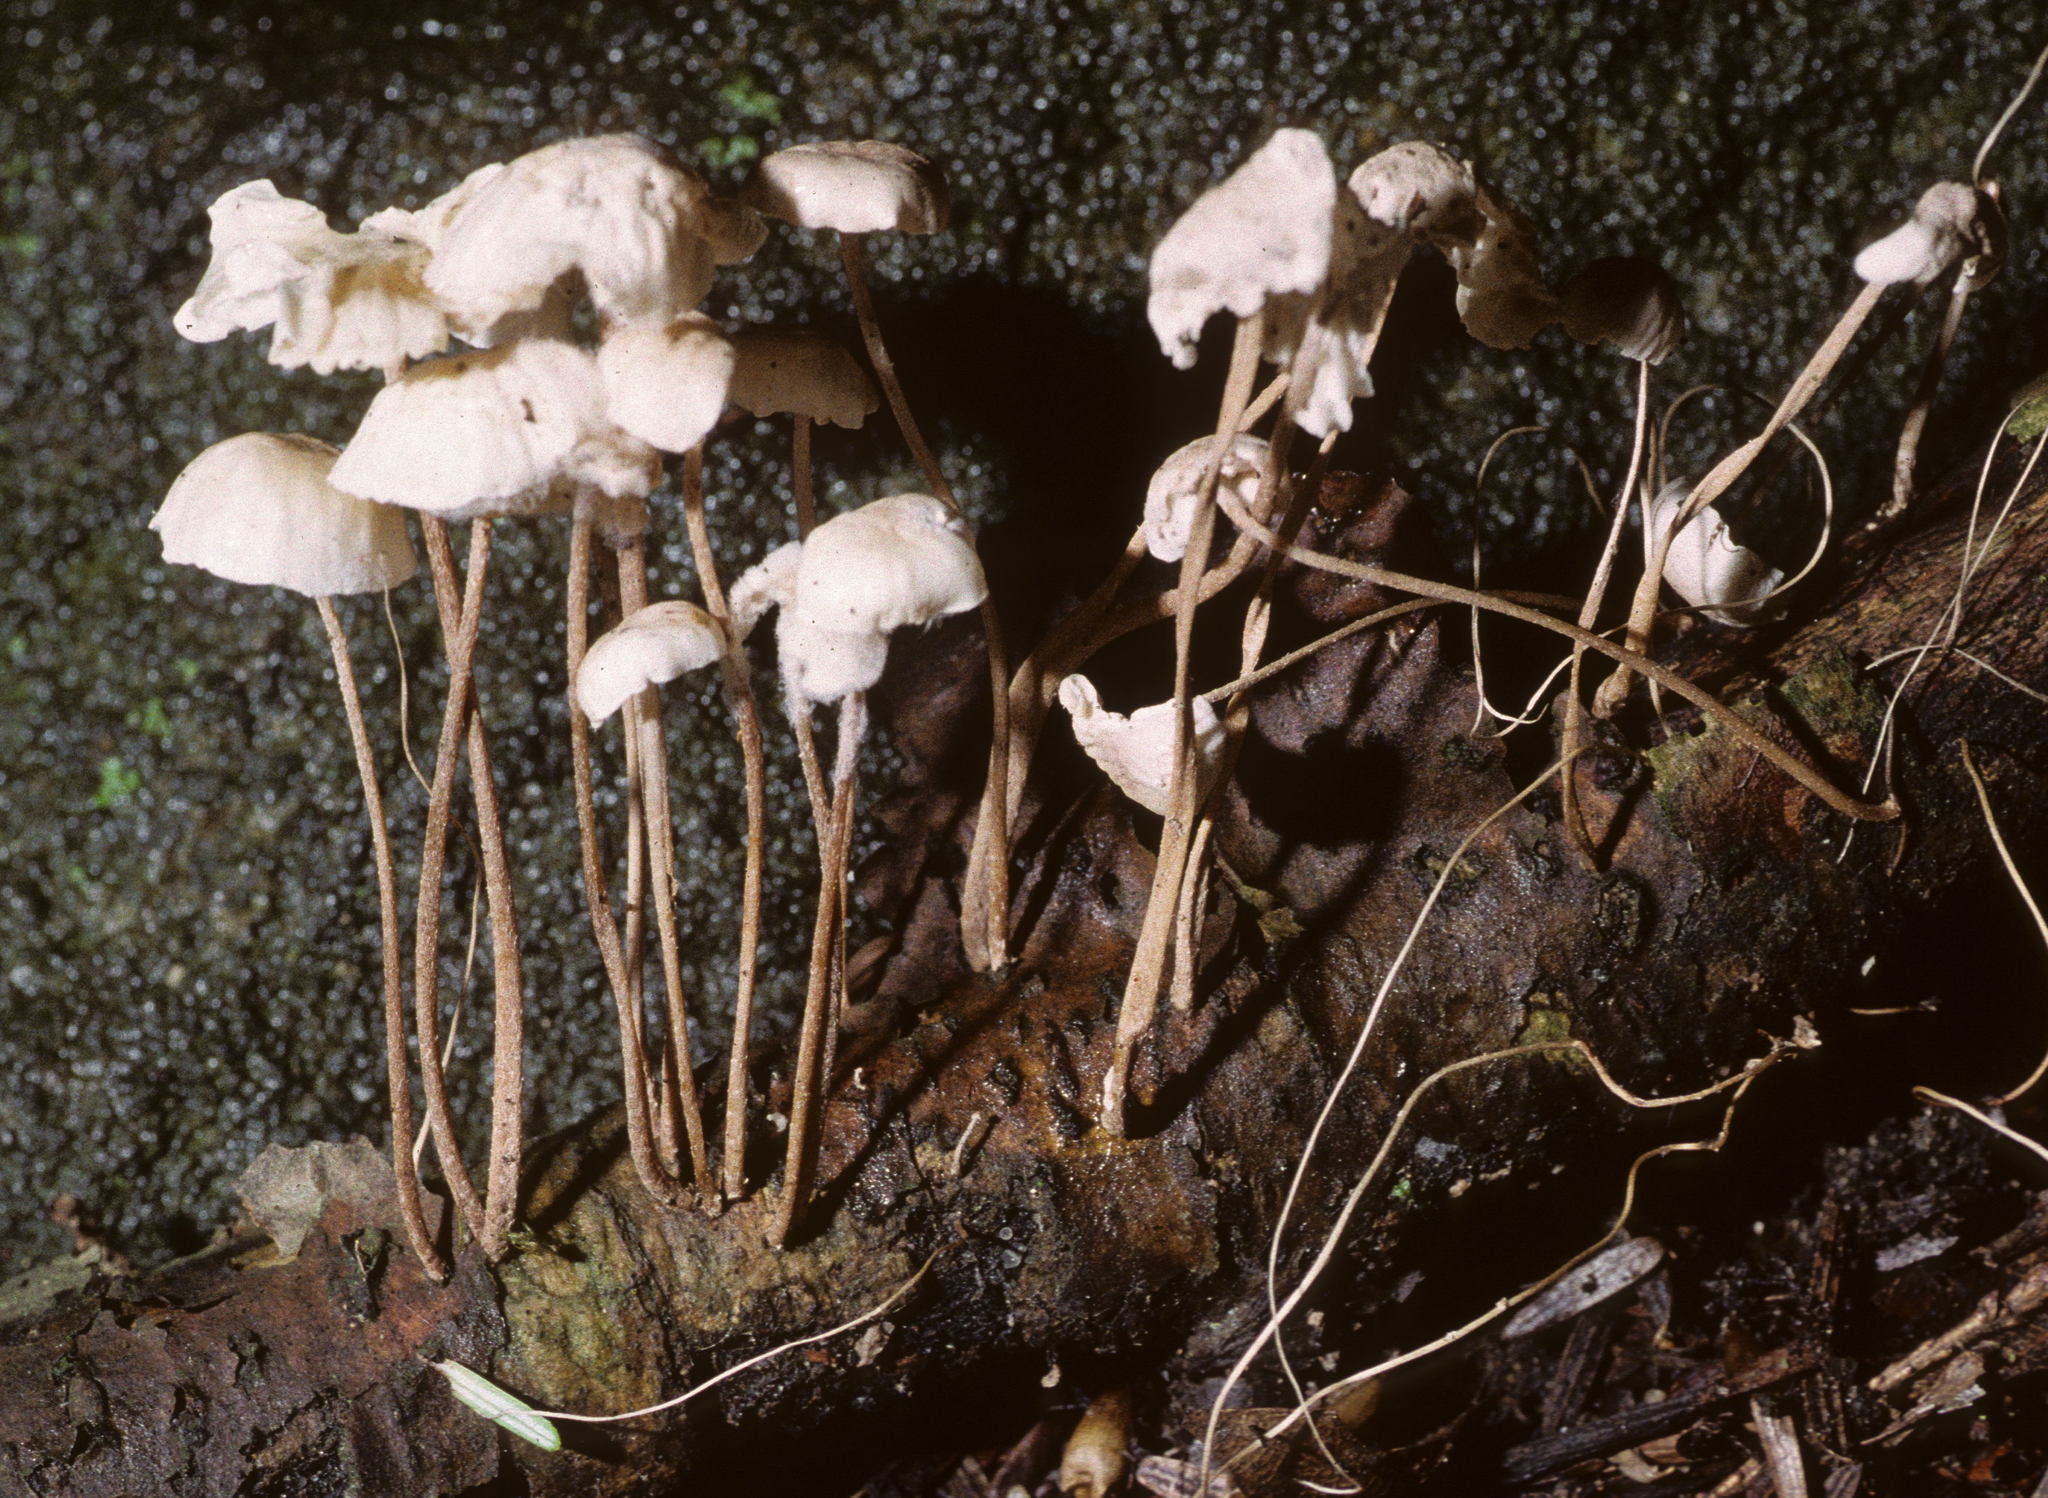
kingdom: Fungi
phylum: Basidiomycota
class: Agaricomycetes
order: Agaricales
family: Omphalotaceae
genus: Mycetinis
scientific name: Mycetinis opacus
